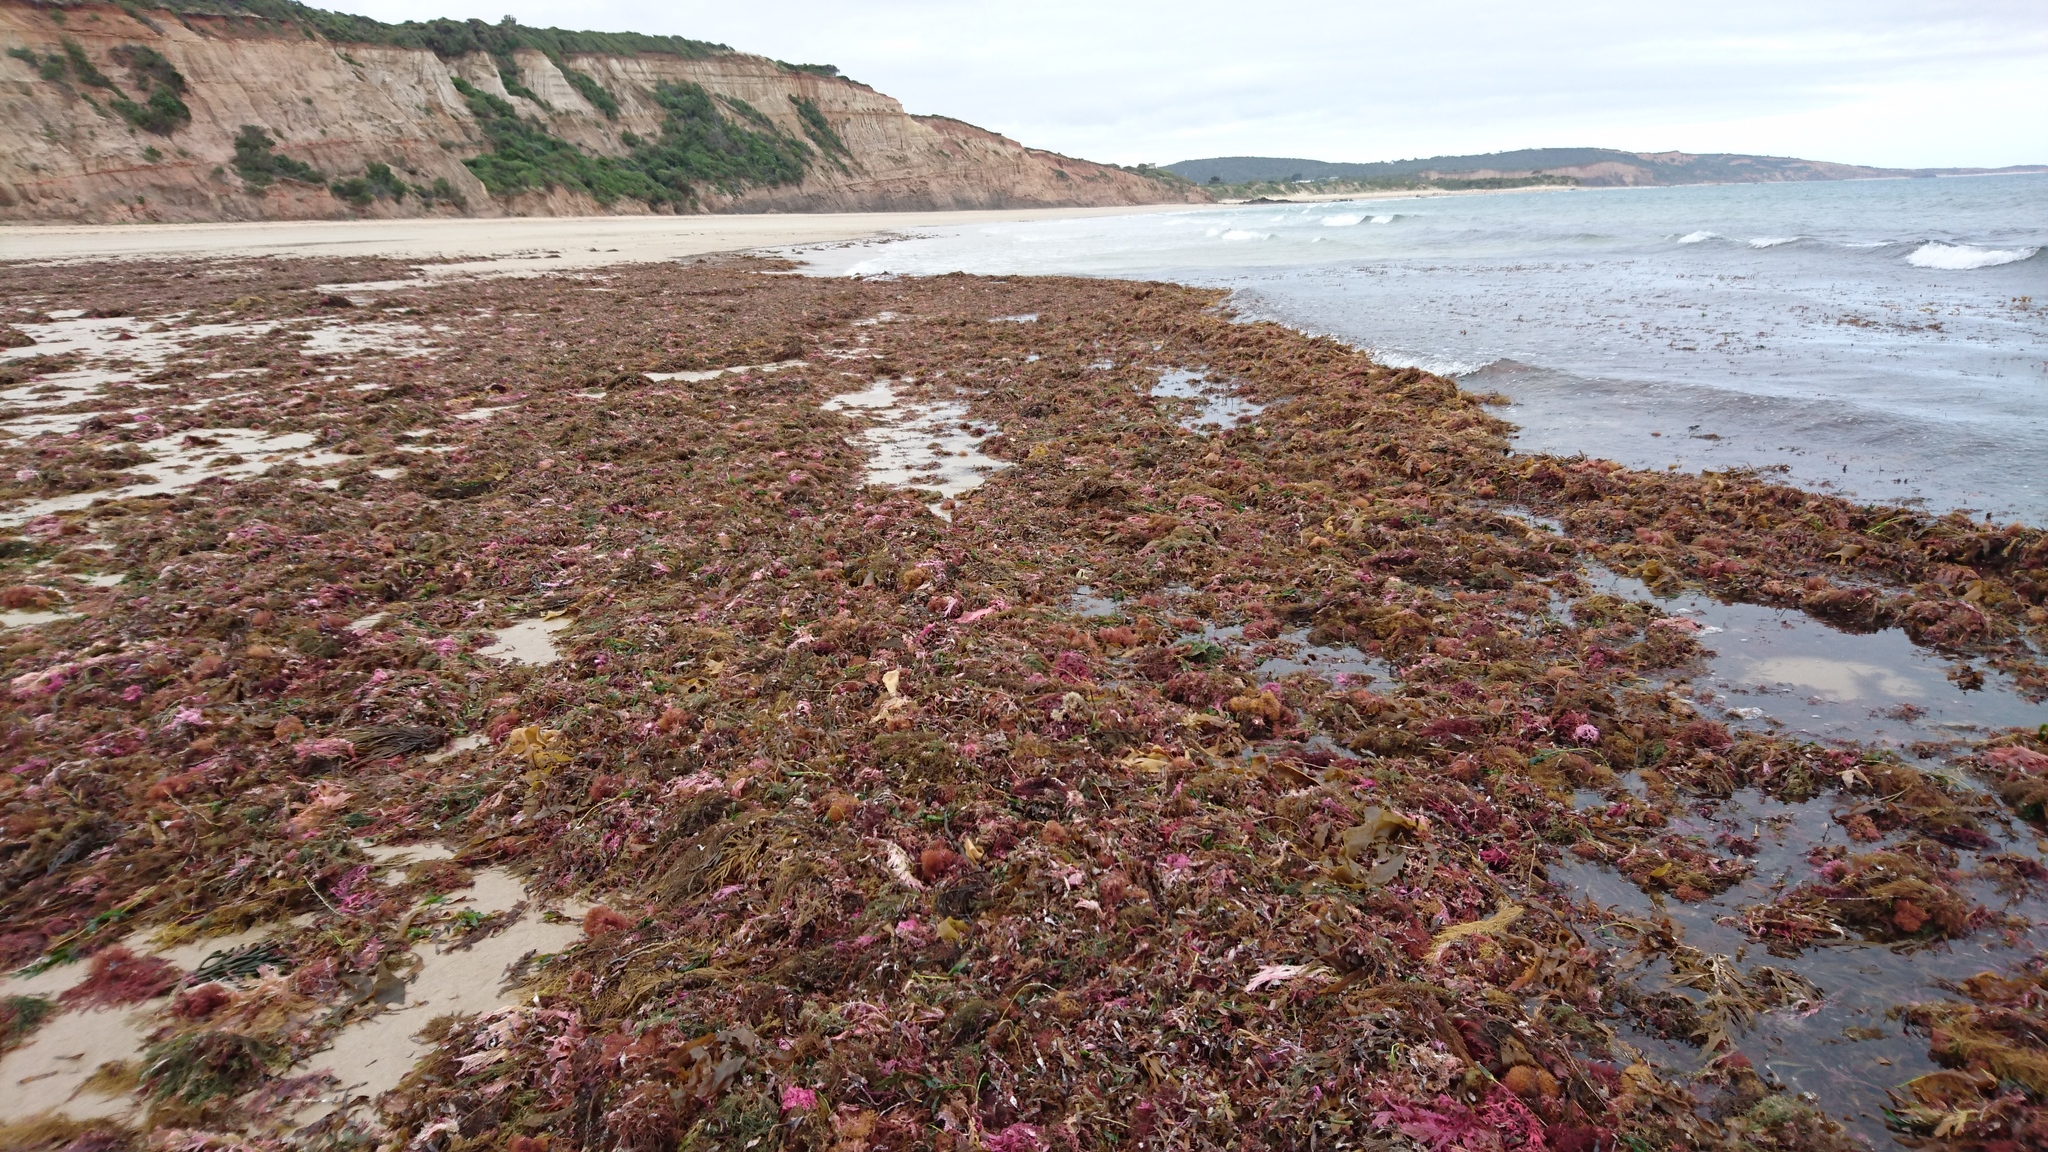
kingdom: Plantae
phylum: Rhodophyta
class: Florideophyceae
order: Rhodymeniales
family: Rhodymeniaceae
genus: Chrysymenia
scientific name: Chrysymenia brownii
